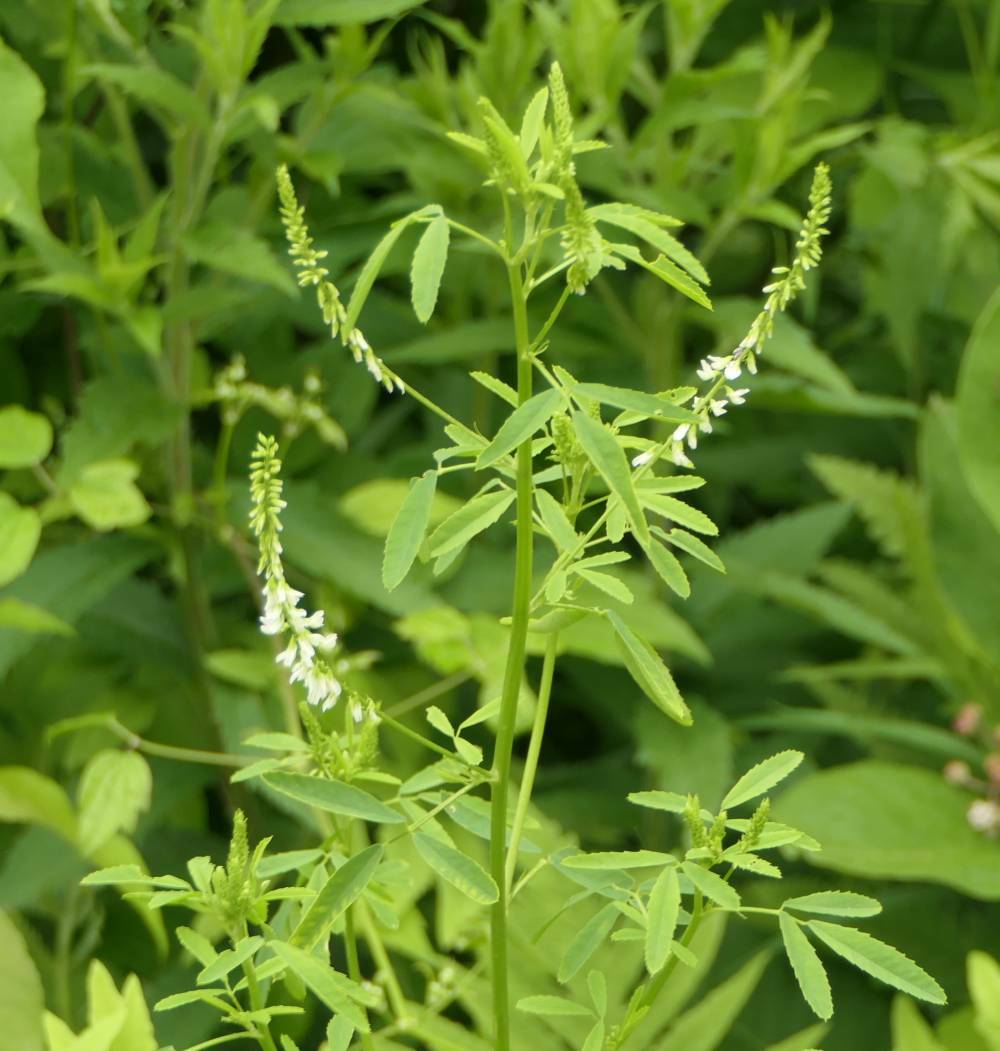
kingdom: Plantae
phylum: Tracheophyta
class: Magnoliopsida
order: Fabales
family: Fabaceae
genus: Melilotus
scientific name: Melilotus albus
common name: White melilot
